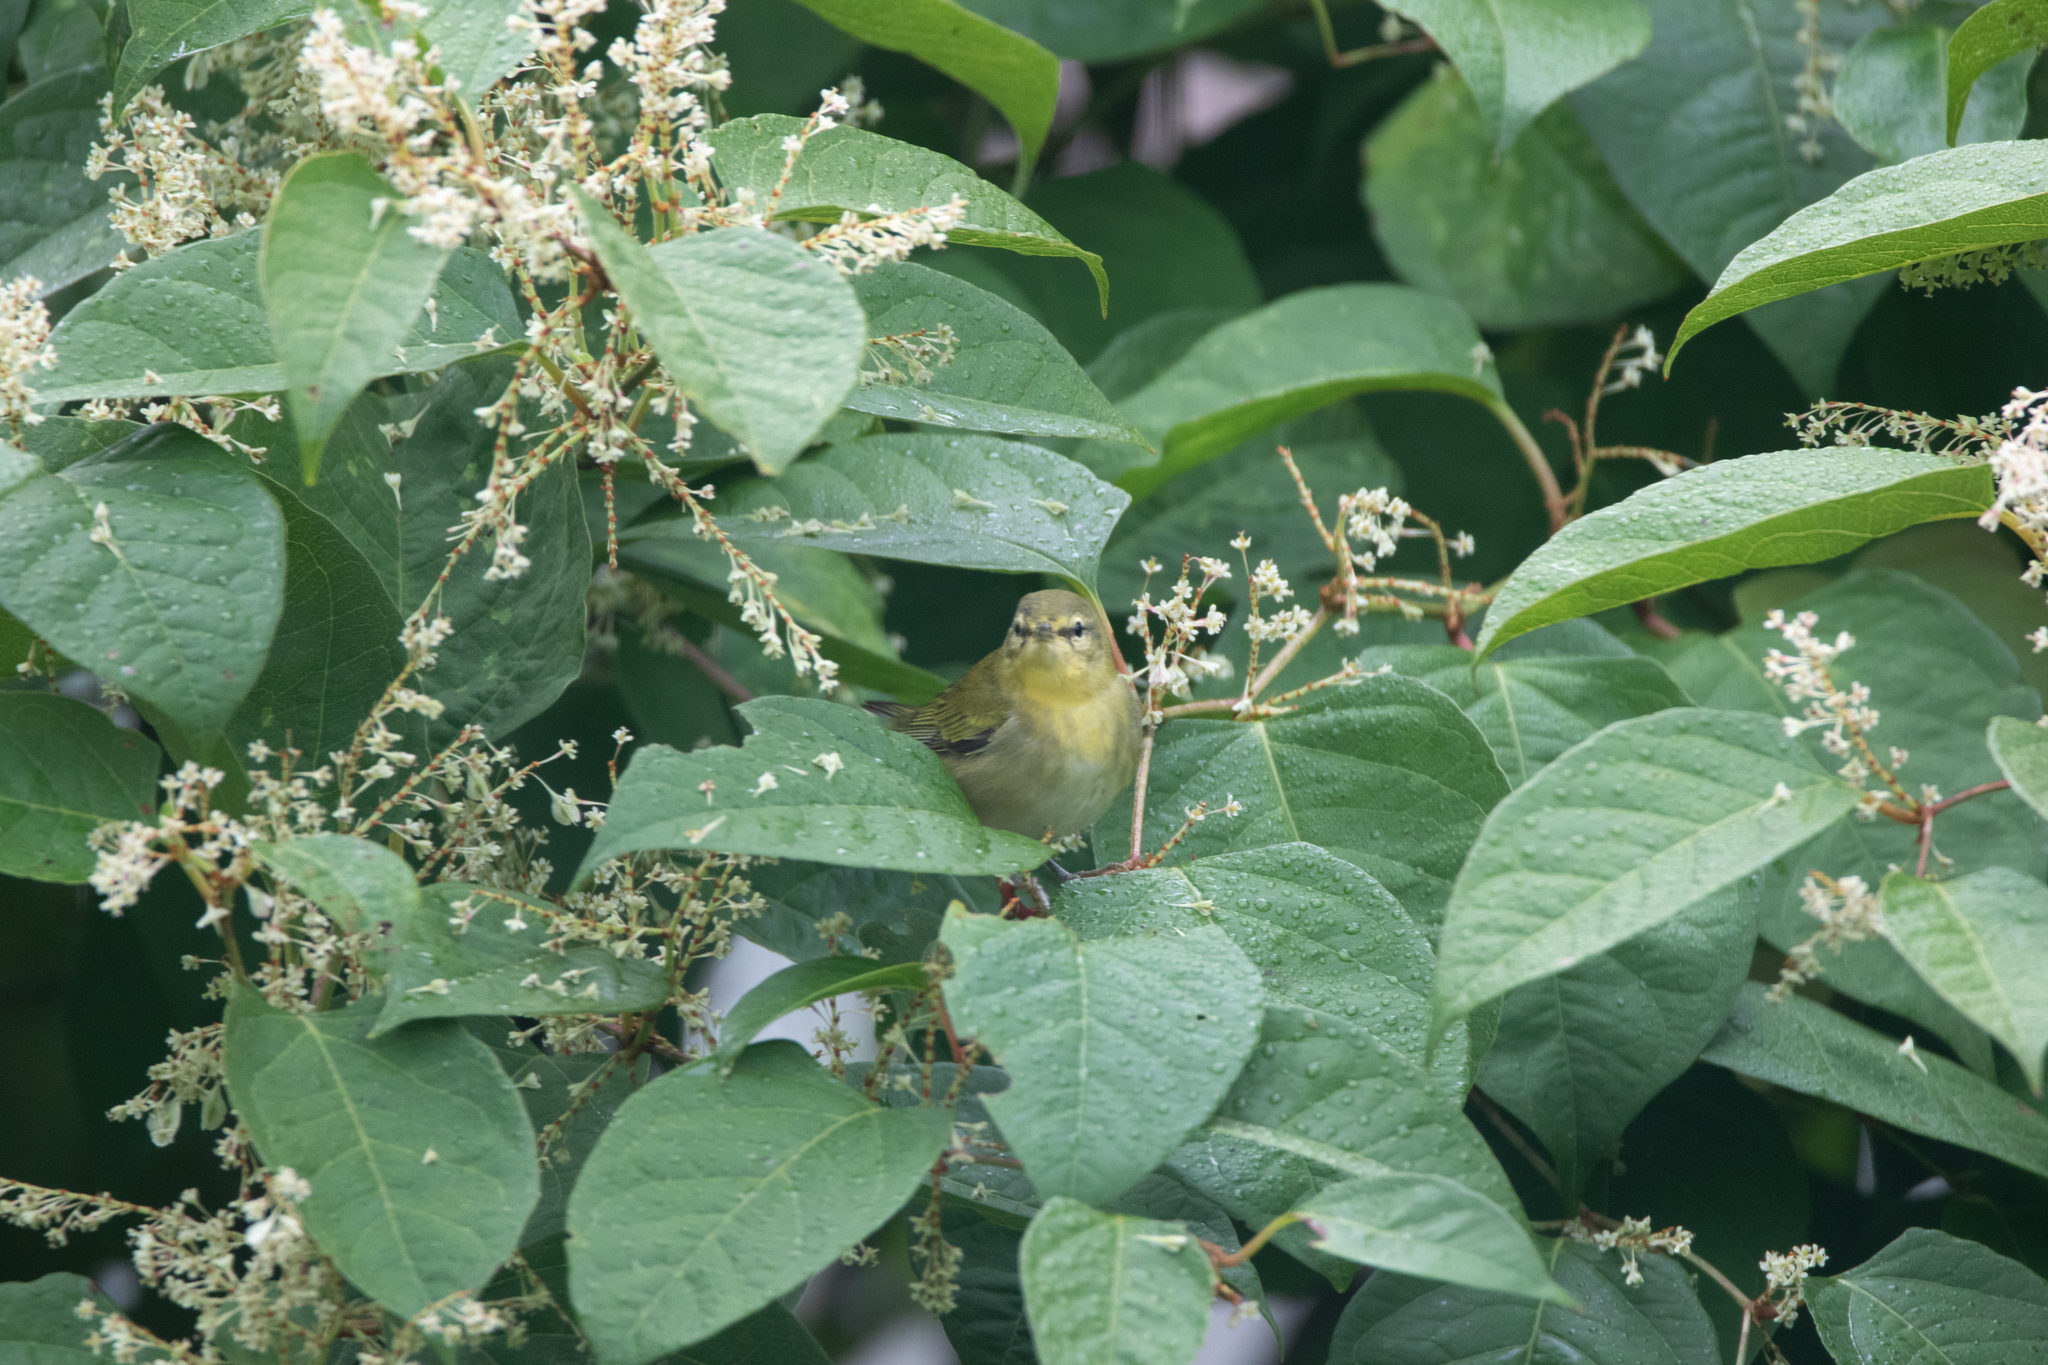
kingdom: Animalia
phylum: Chordata
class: Aves
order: Passeriformes
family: Parulidae
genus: Leiothlypis
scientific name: Leiothlypis peregrina
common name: Tennessee warbler
